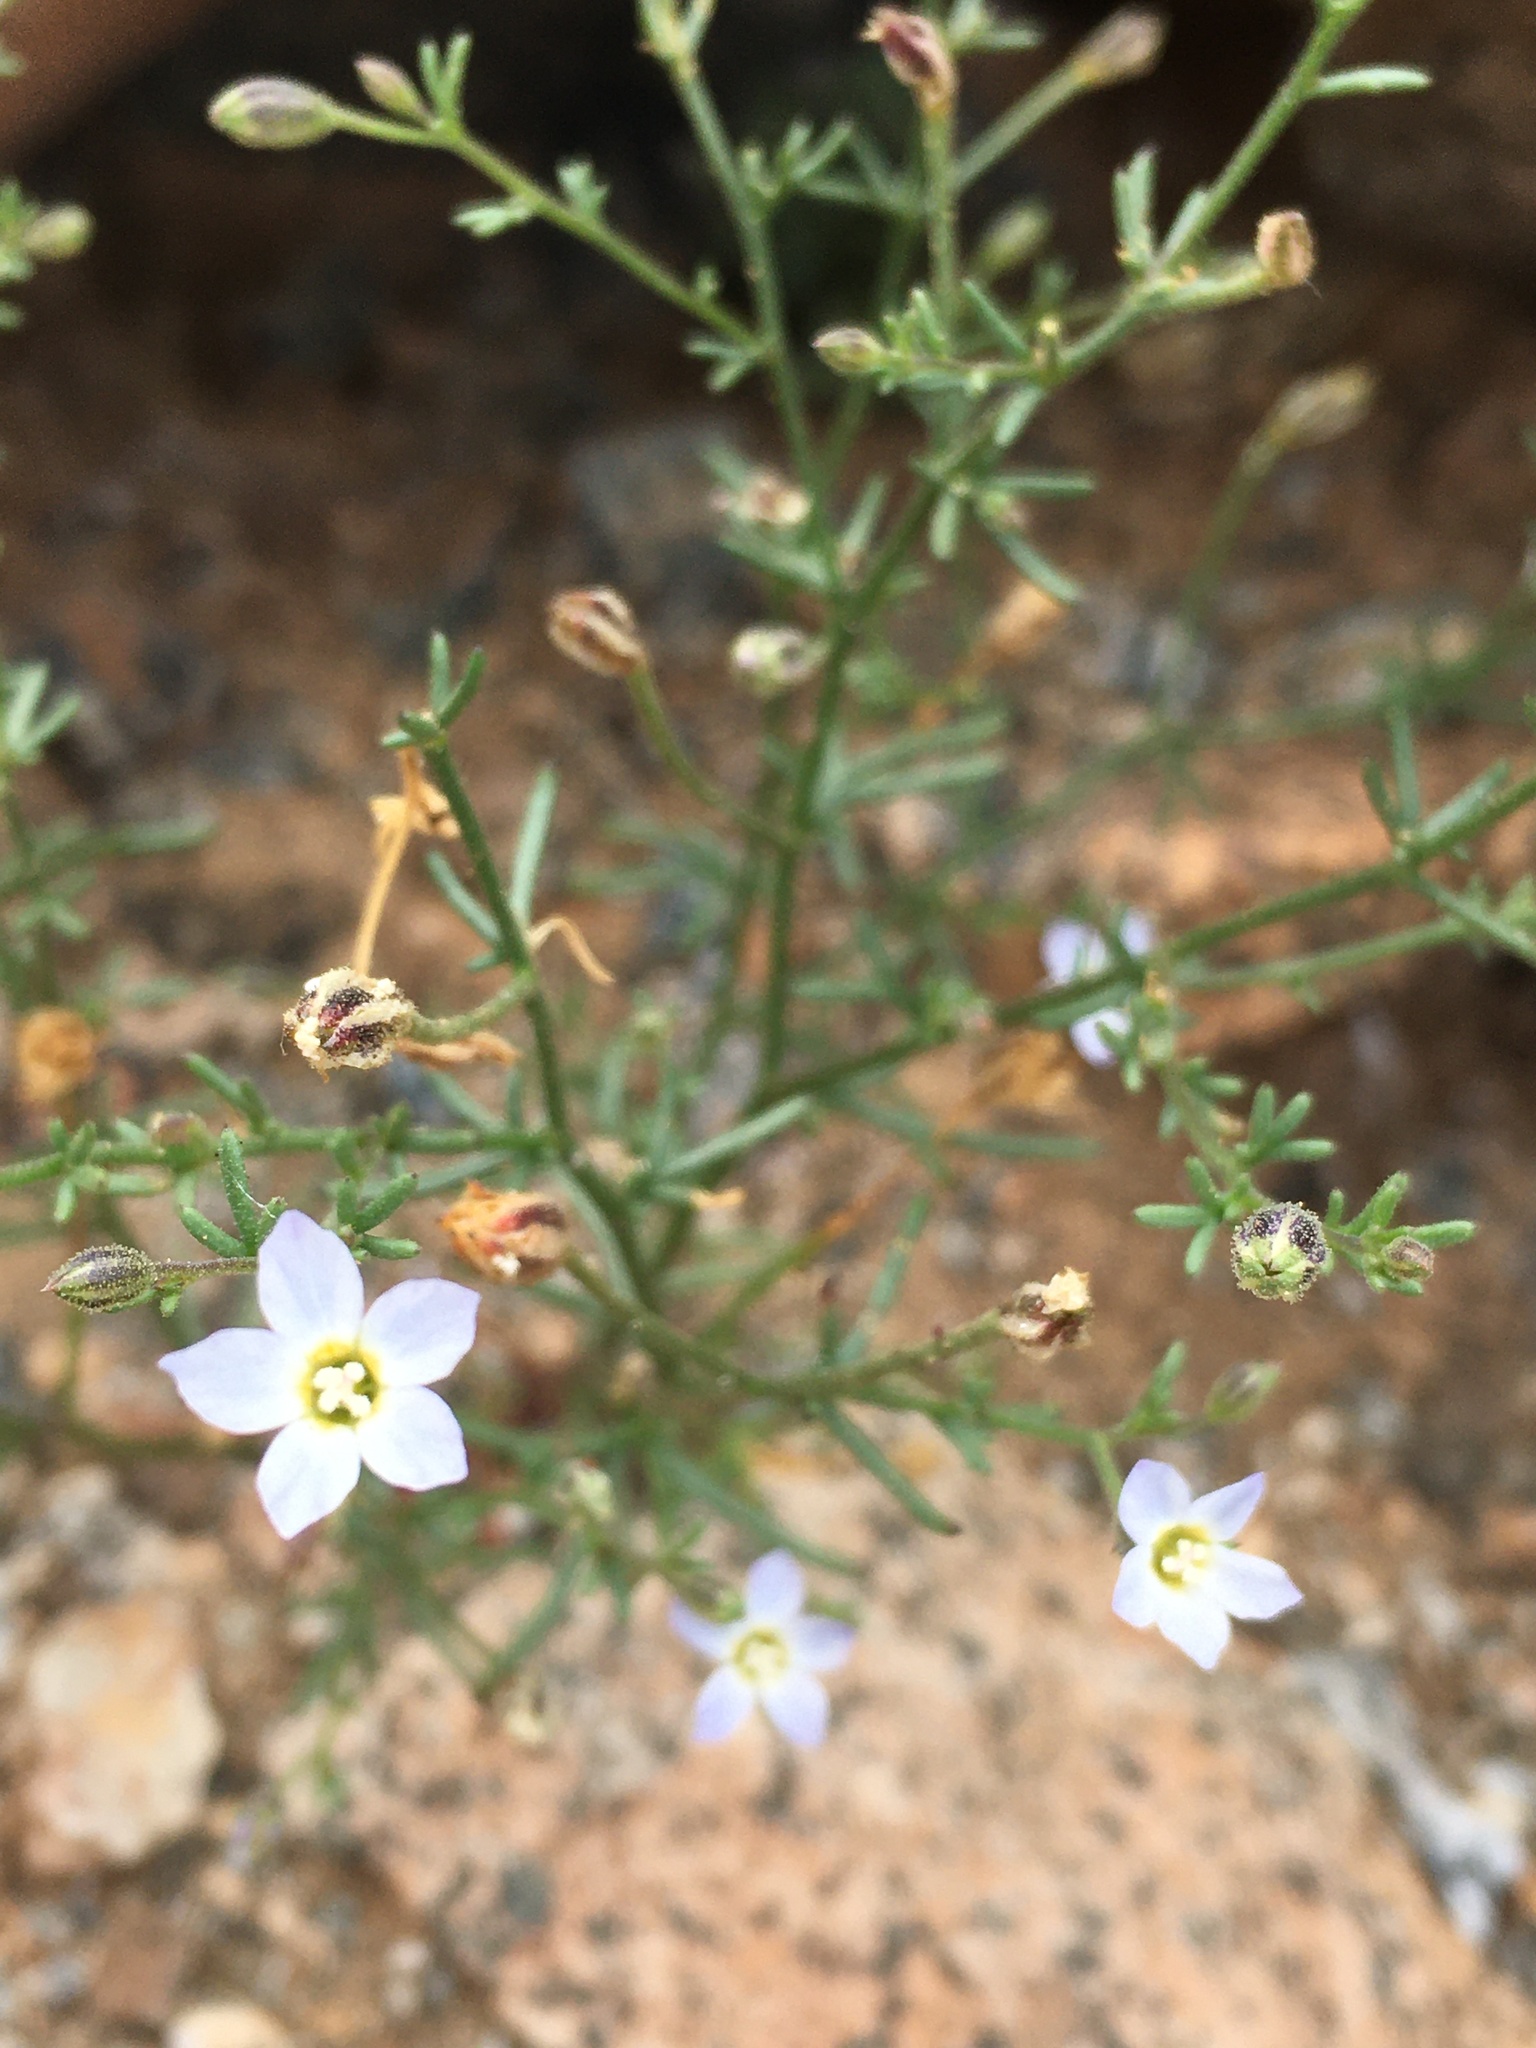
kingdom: Plantae
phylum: Tracheophyta
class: Magnoliopsida
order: Ericales
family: Polemoniaceae
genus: Dayia
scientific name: Dayia glutinosa
